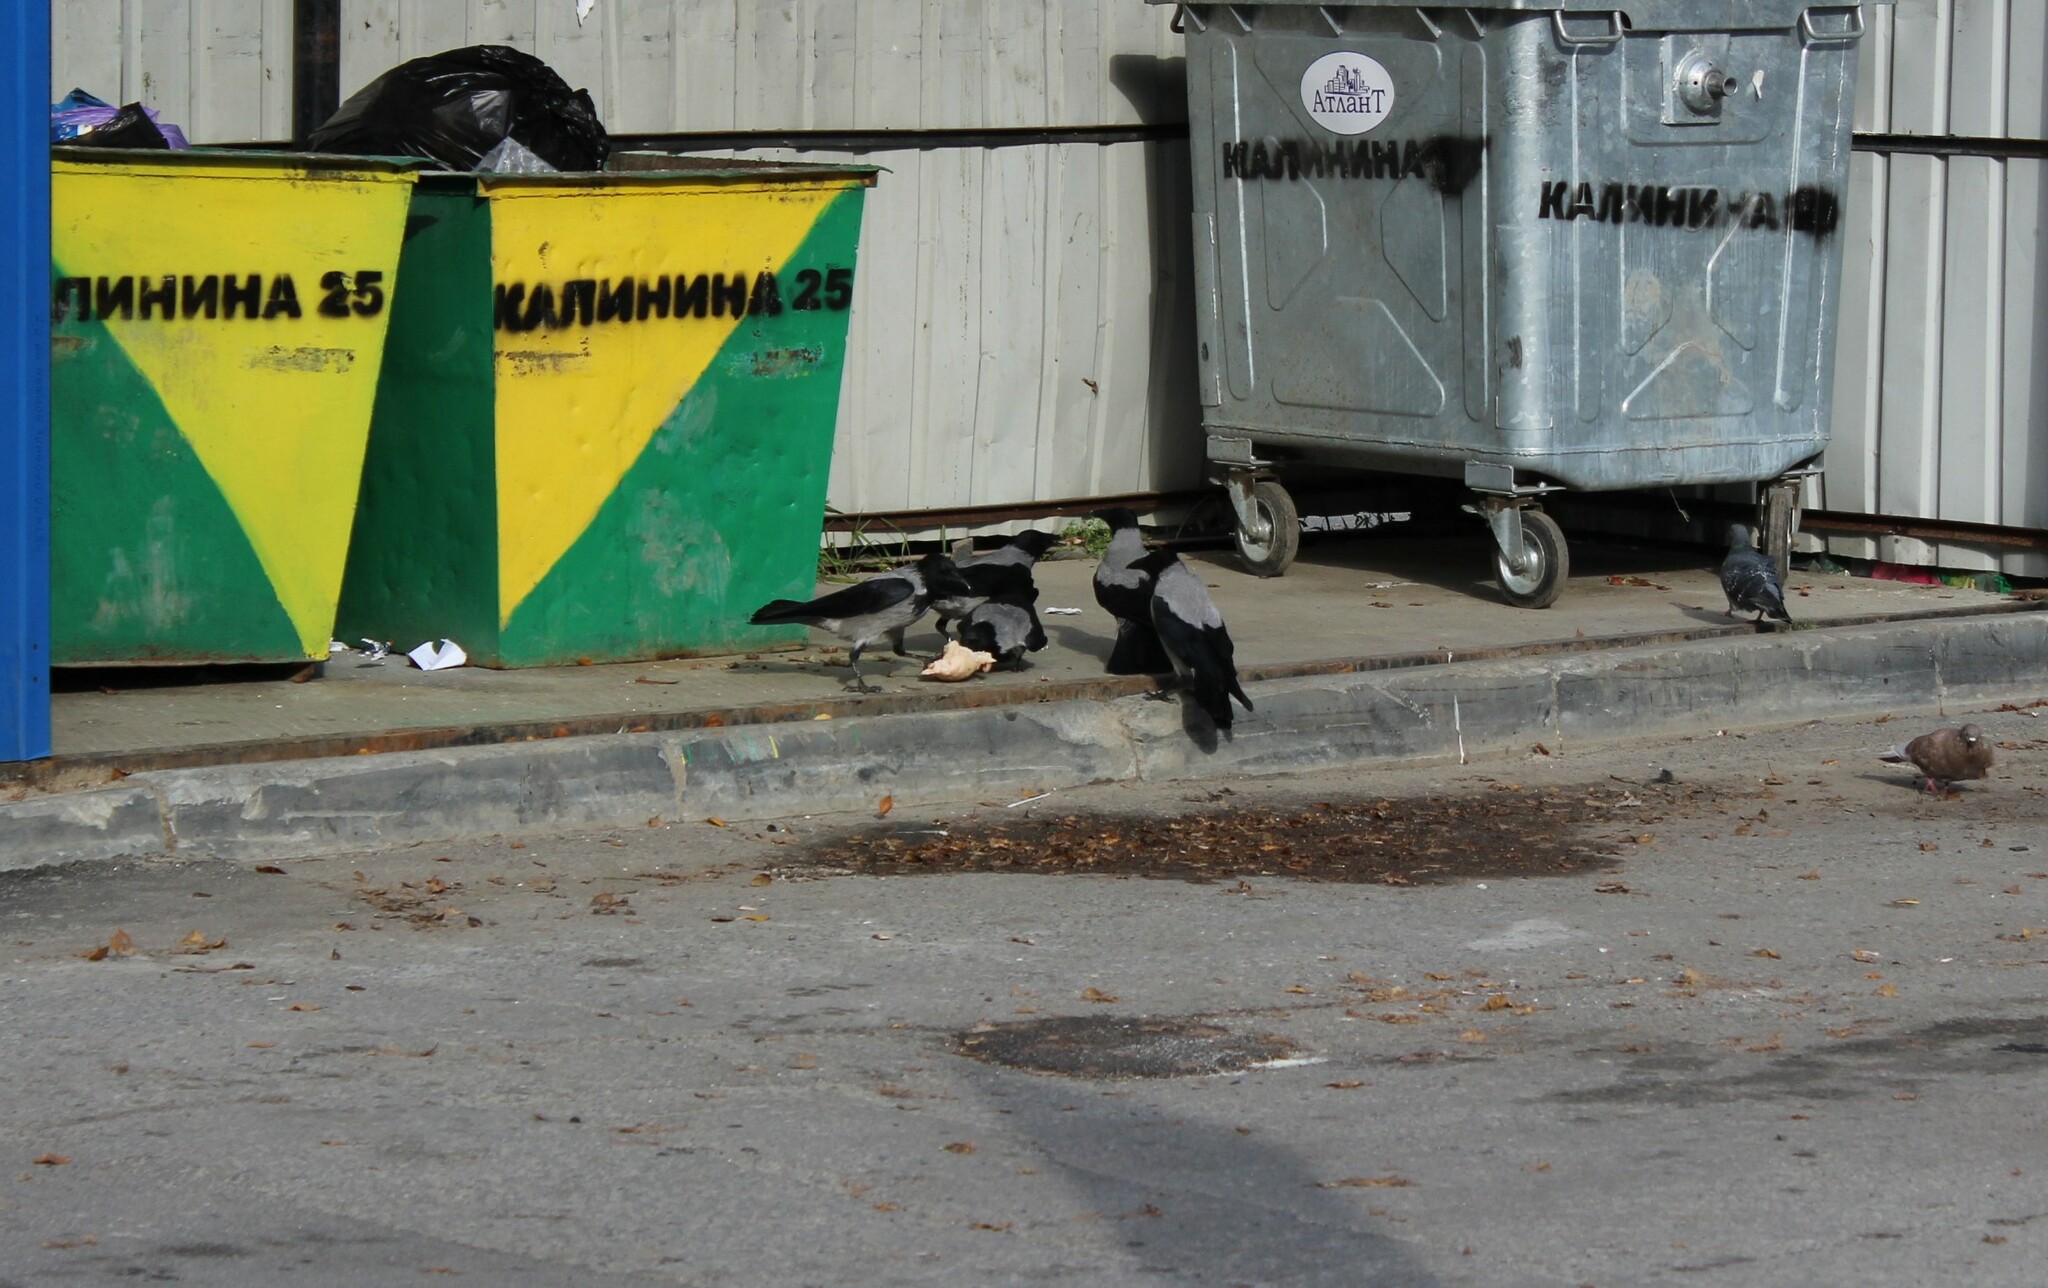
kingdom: Animalia
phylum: Chordata
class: Aves
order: Passeriformes
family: Corvidae
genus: Corvus
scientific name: Corvus cornix
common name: Hooded crow
